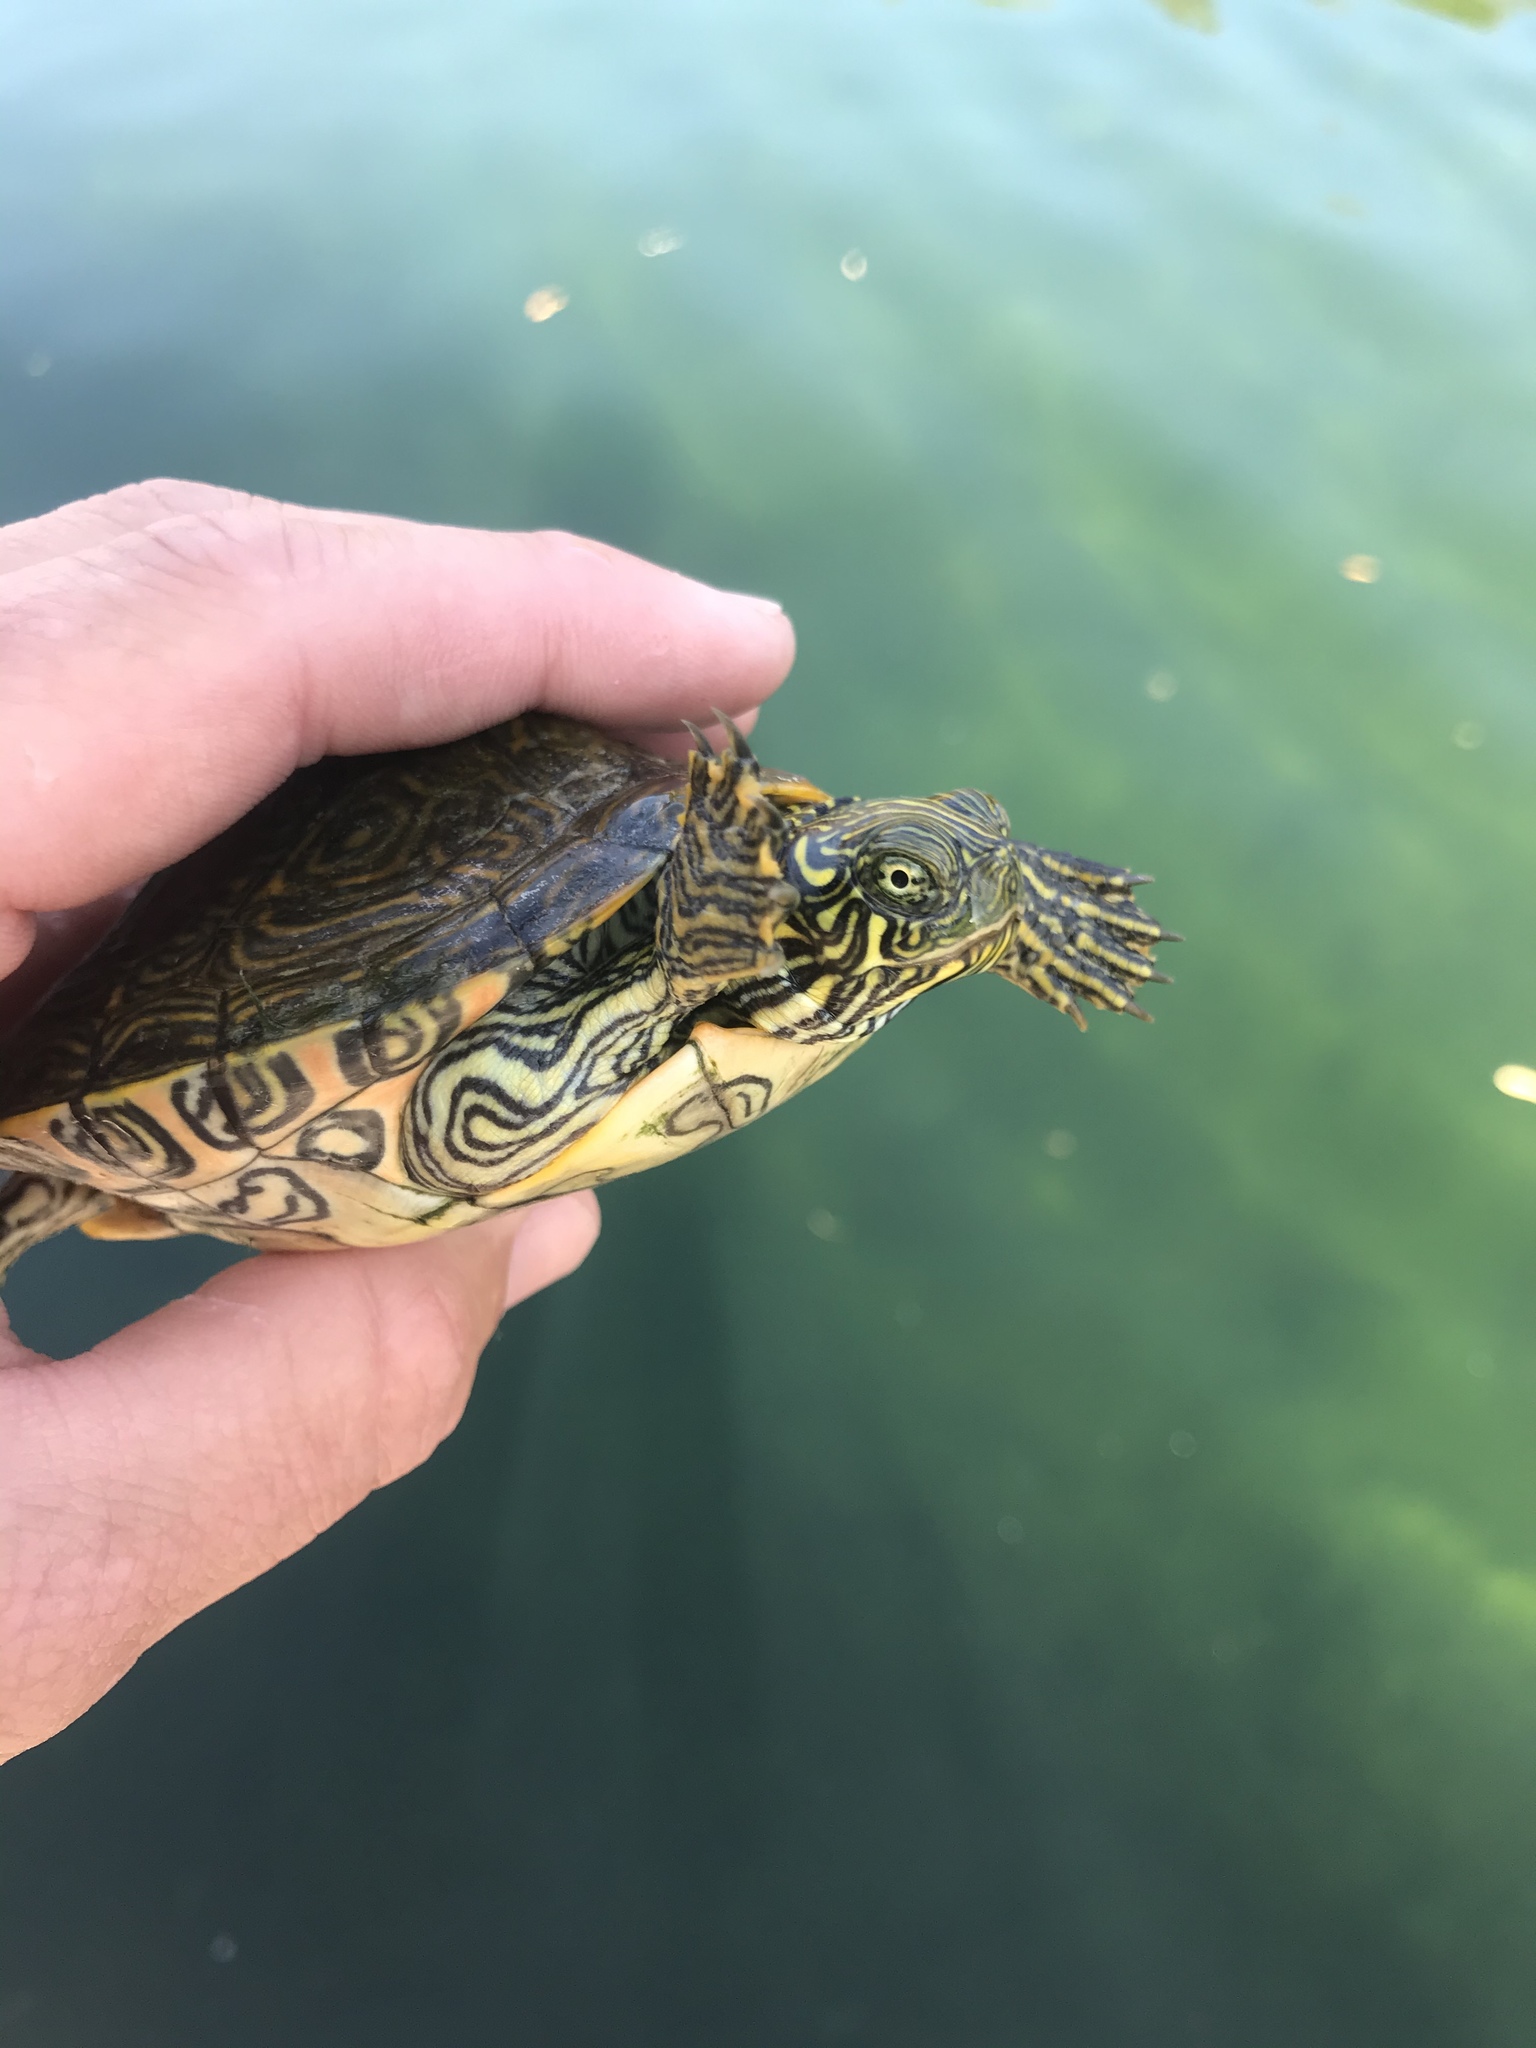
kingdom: Animalia
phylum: Chordata
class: Testudines
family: Emydidae
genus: Pseudemys
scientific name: Pseudemys texana
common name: Texas river cooter
